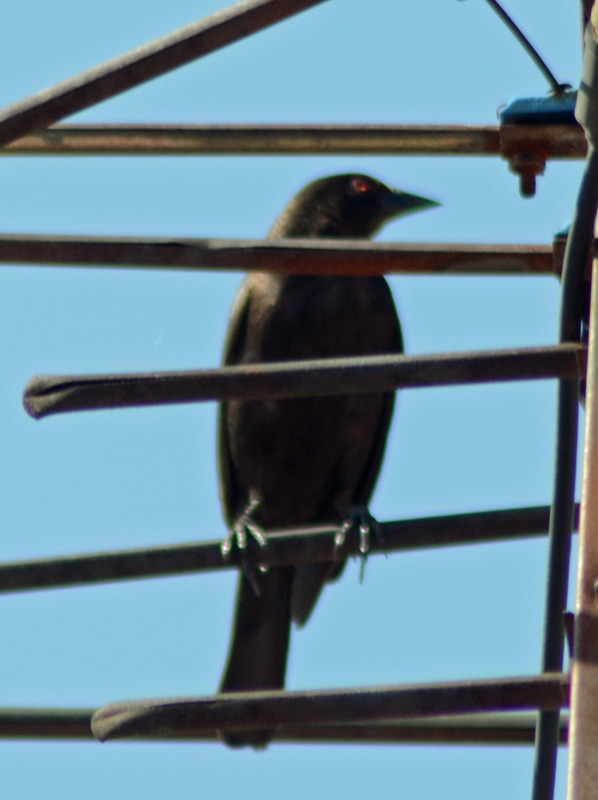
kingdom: Animalia
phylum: Chordata
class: Aves
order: Passeriformes
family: Icteridae
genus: Molothrus
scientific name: Molothrus aeneus
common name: Bronzed cowbird
